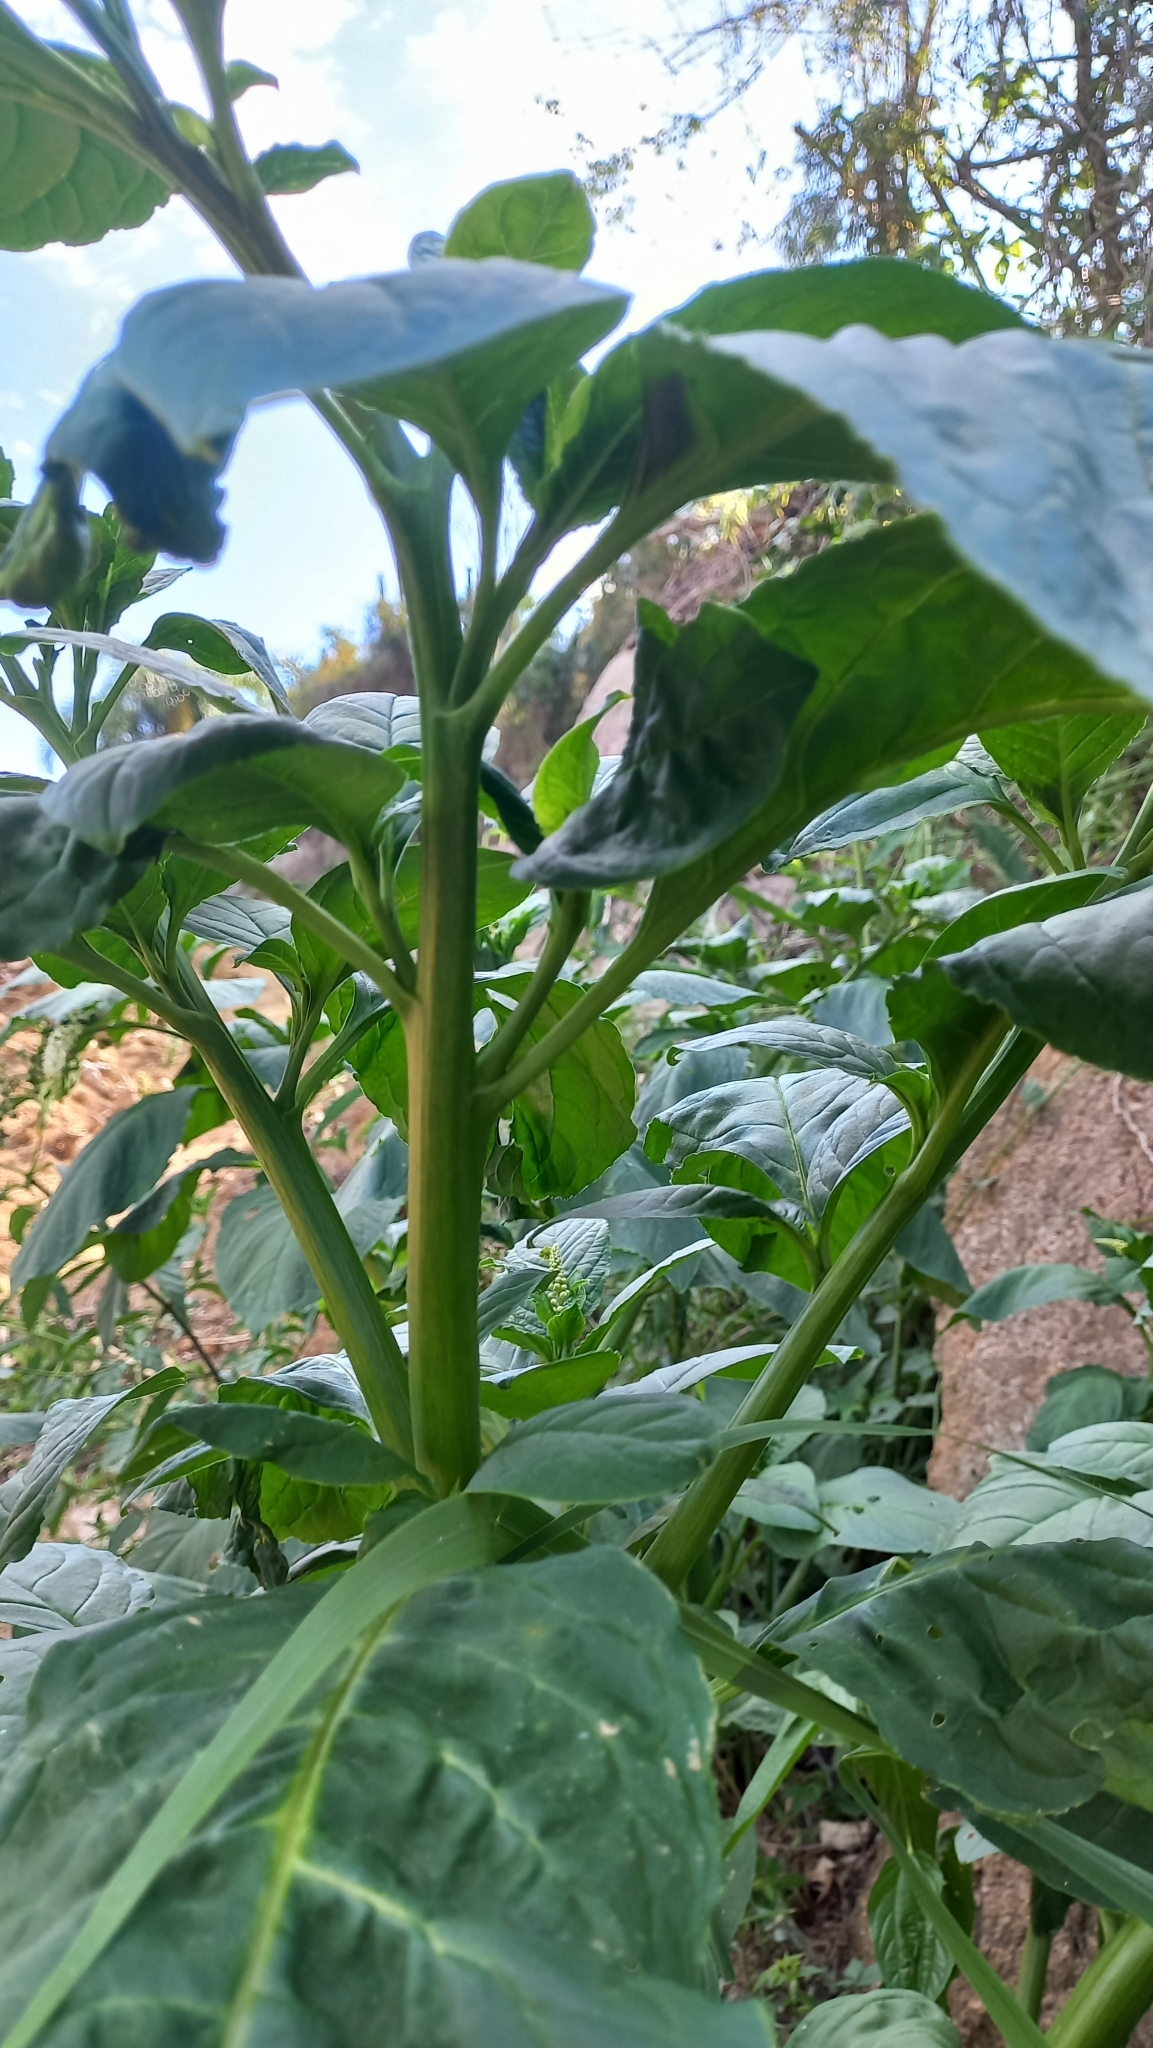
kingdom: Plantae
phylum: Tracheophyta
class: Magnoliopsida
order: Caryophyllales
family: Phytolaccaceae
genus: Phytolacca
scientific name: Phytolacca thyrsiflora
